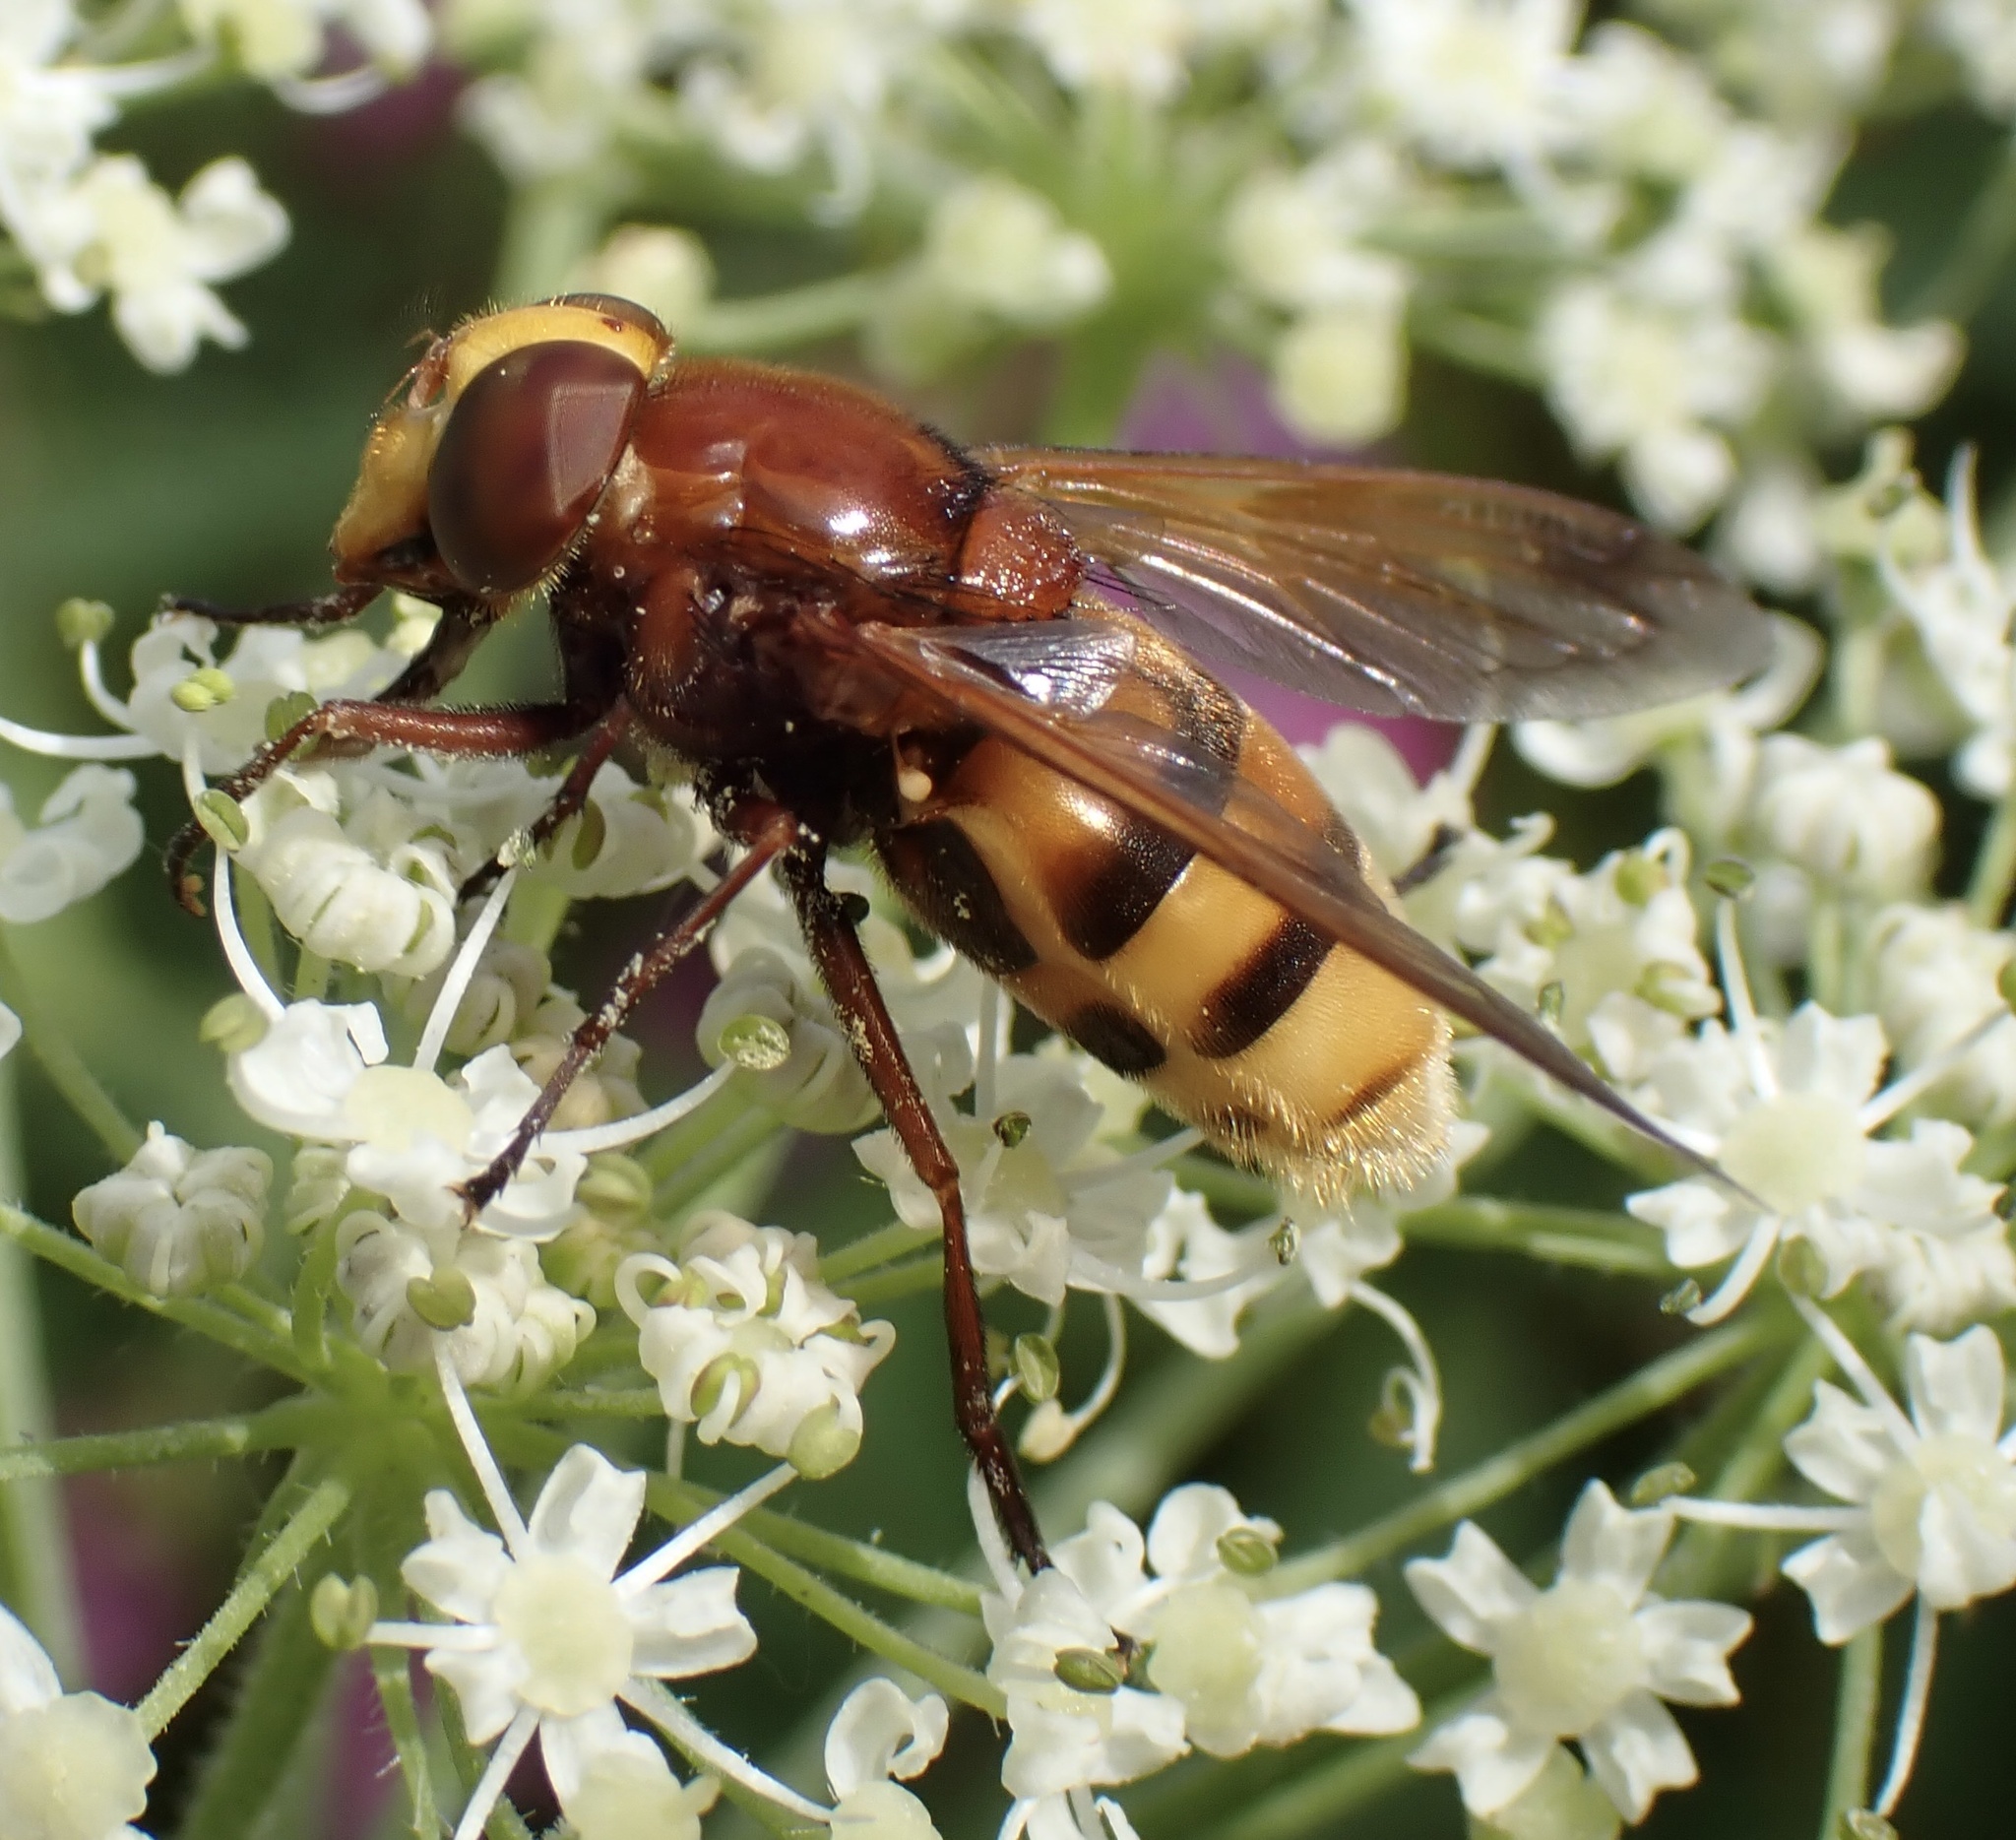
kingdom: Animalia
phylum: Arthropoda
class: Insecta
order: Diptera
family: Syrphidae
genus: Volucella
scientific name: Volucella zonaria
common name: Hornet hoverfly
